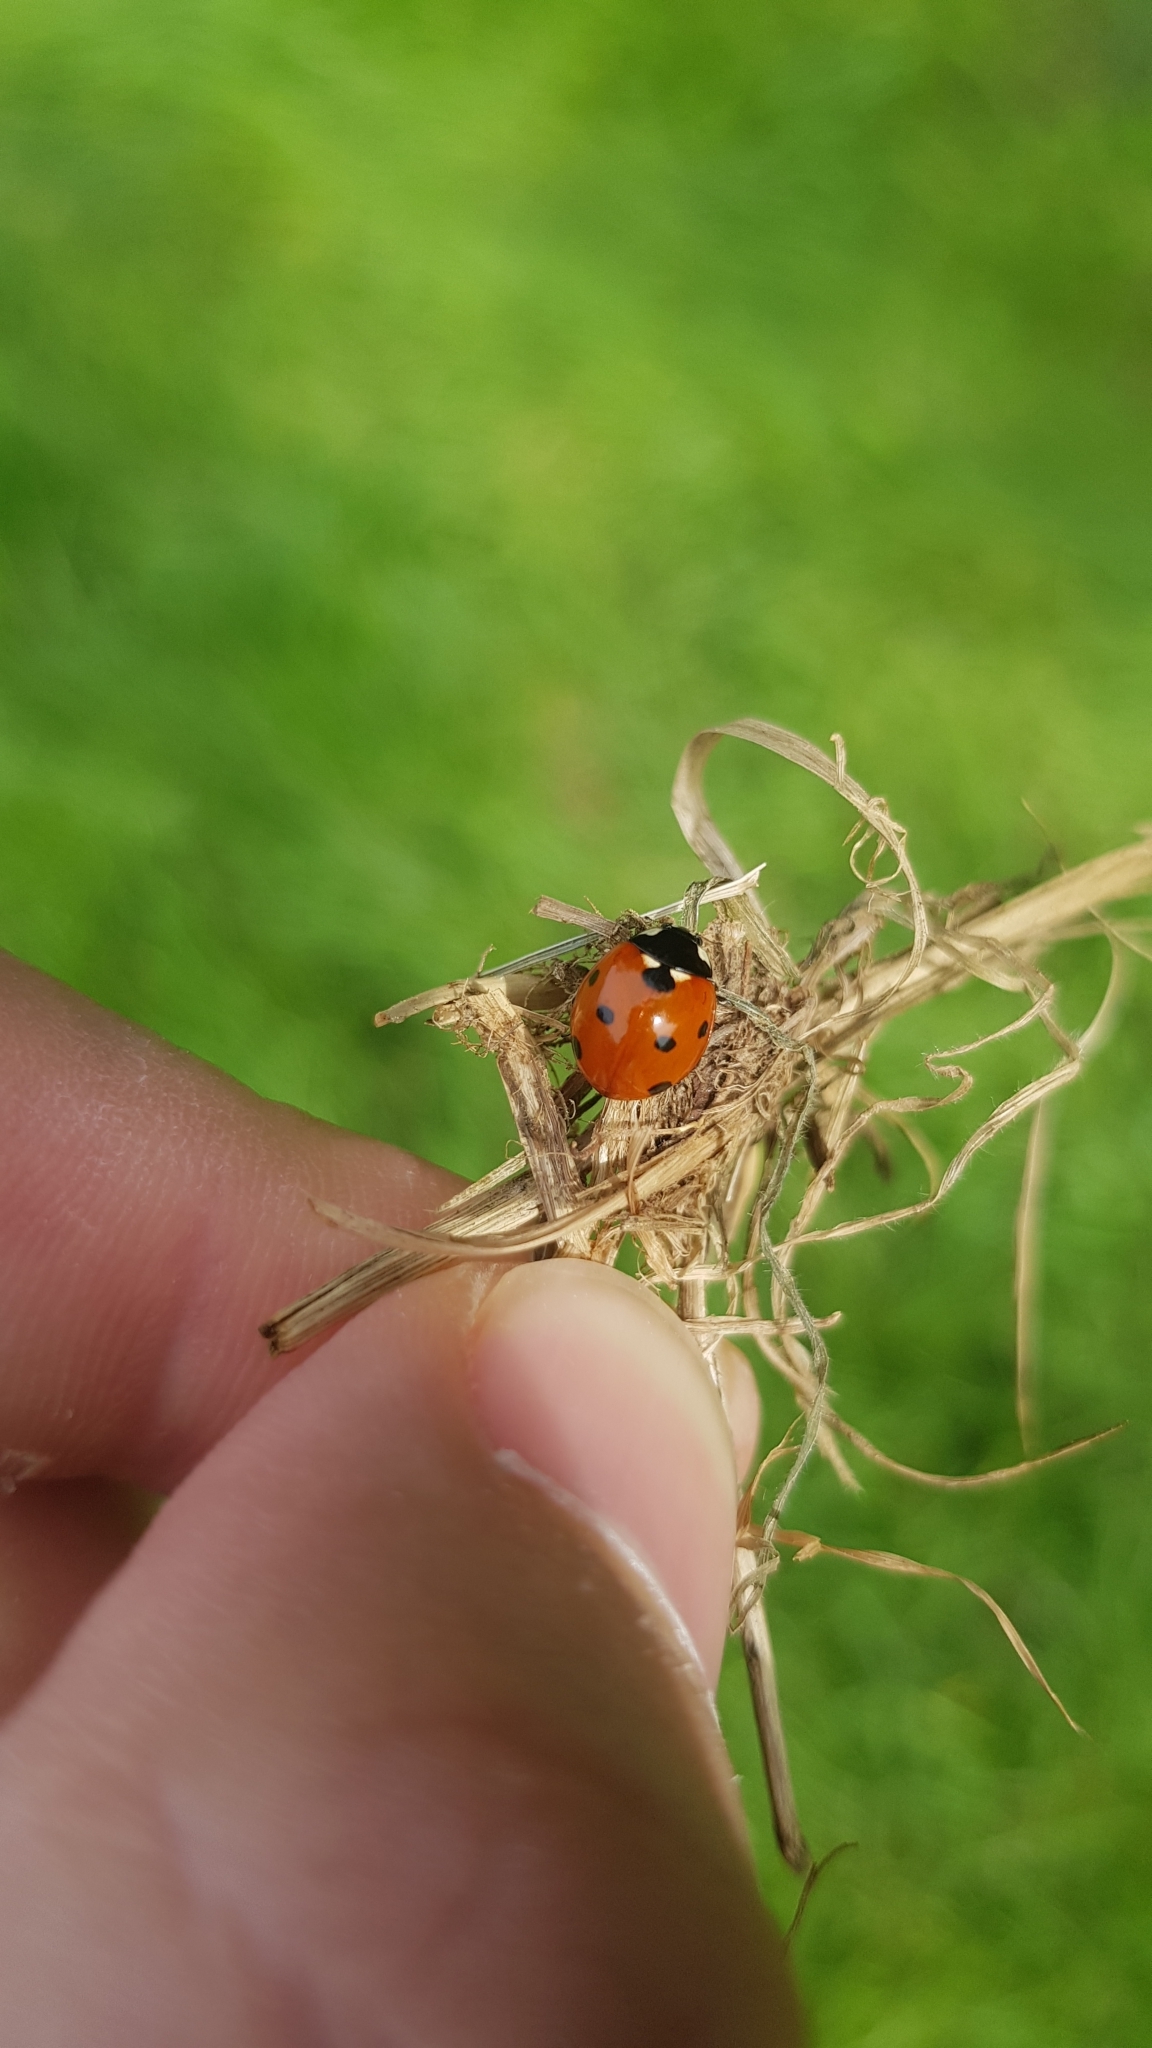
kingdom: Animalia
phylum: Arthropoda
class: Insecta
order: Coleoptera
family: Coccinellidae
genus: Coccinella
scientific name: Coccinella septempunctata
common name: Sevenspotted lady beetle
